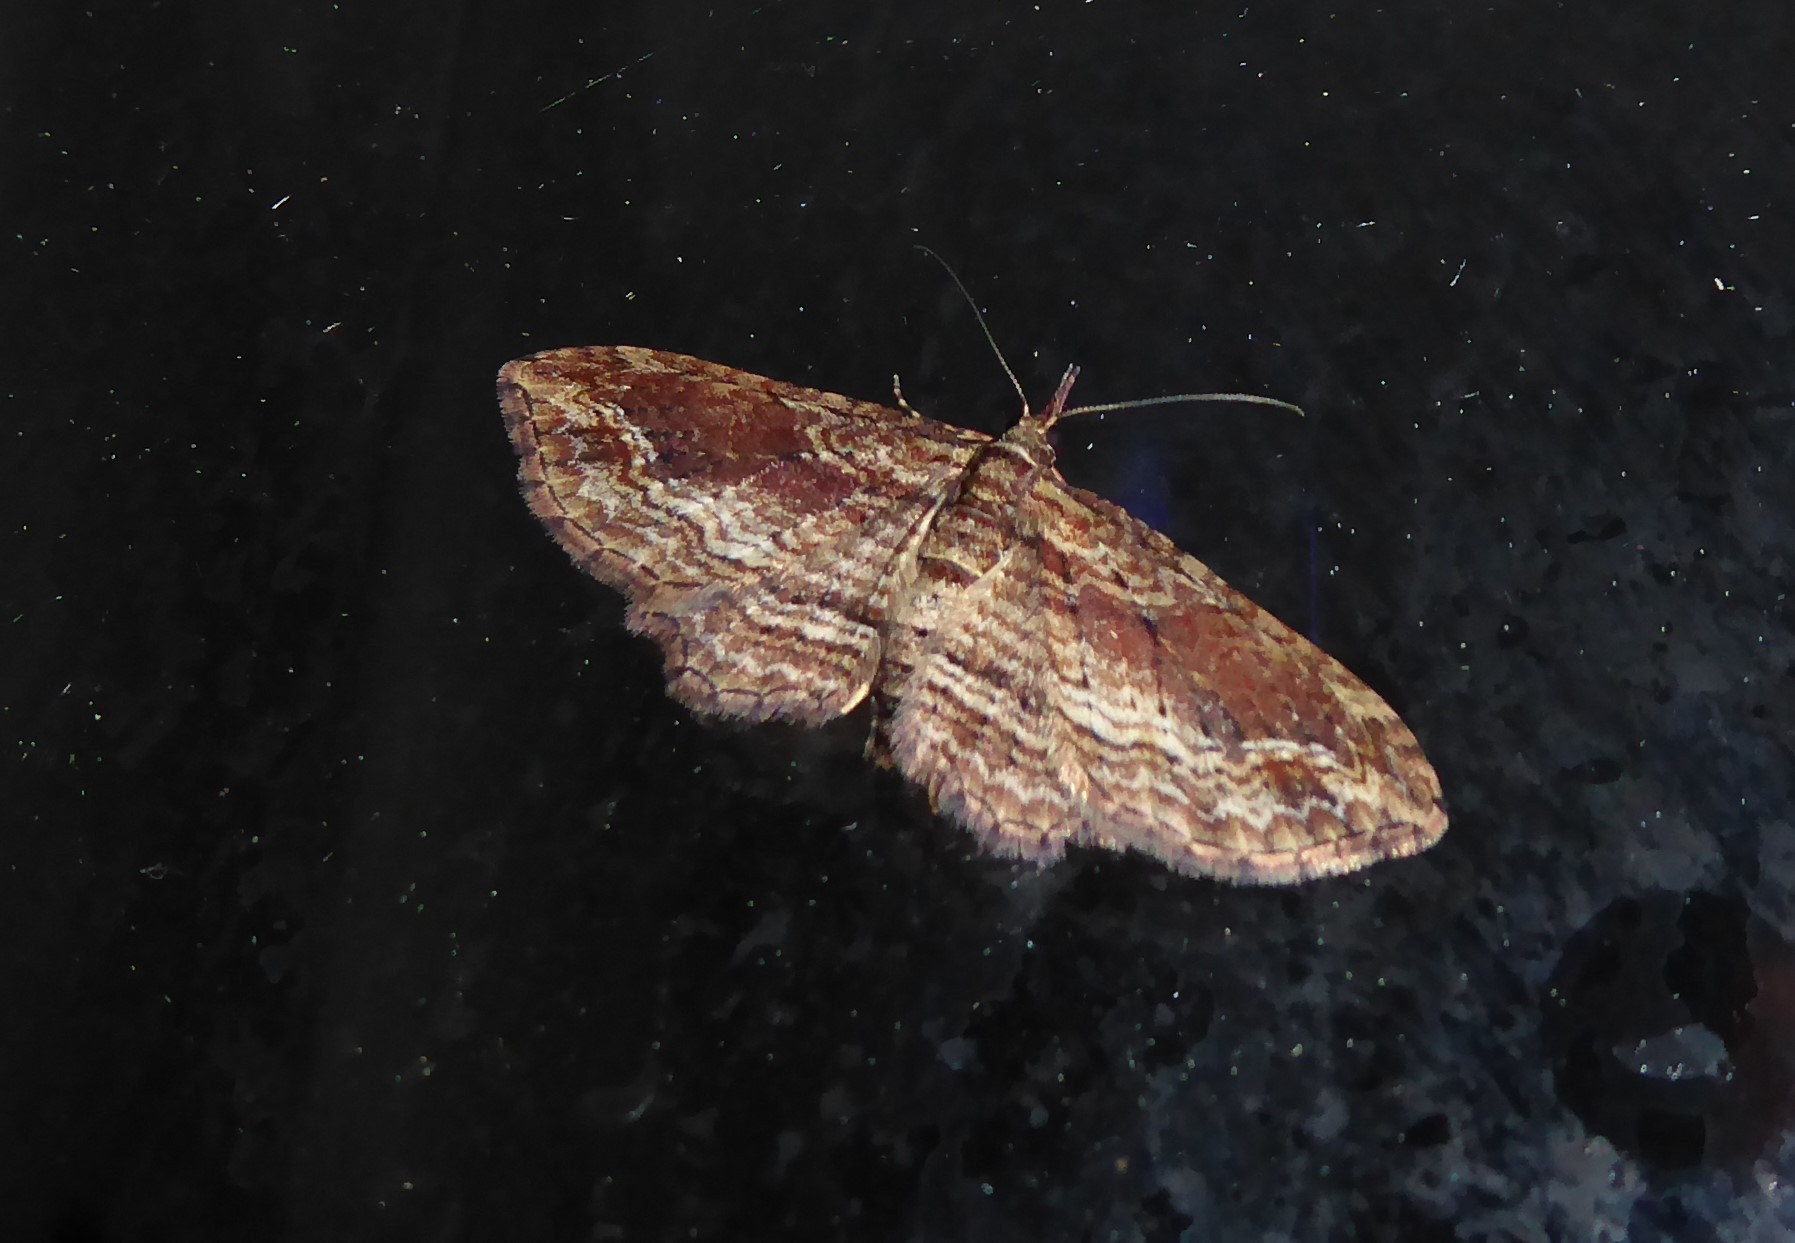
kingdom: Animalia
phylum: Arthropoda
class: Insecta
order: Lepidoptera
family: Geometridae
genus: Chloroclystis
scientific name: Chloroclystis filata
